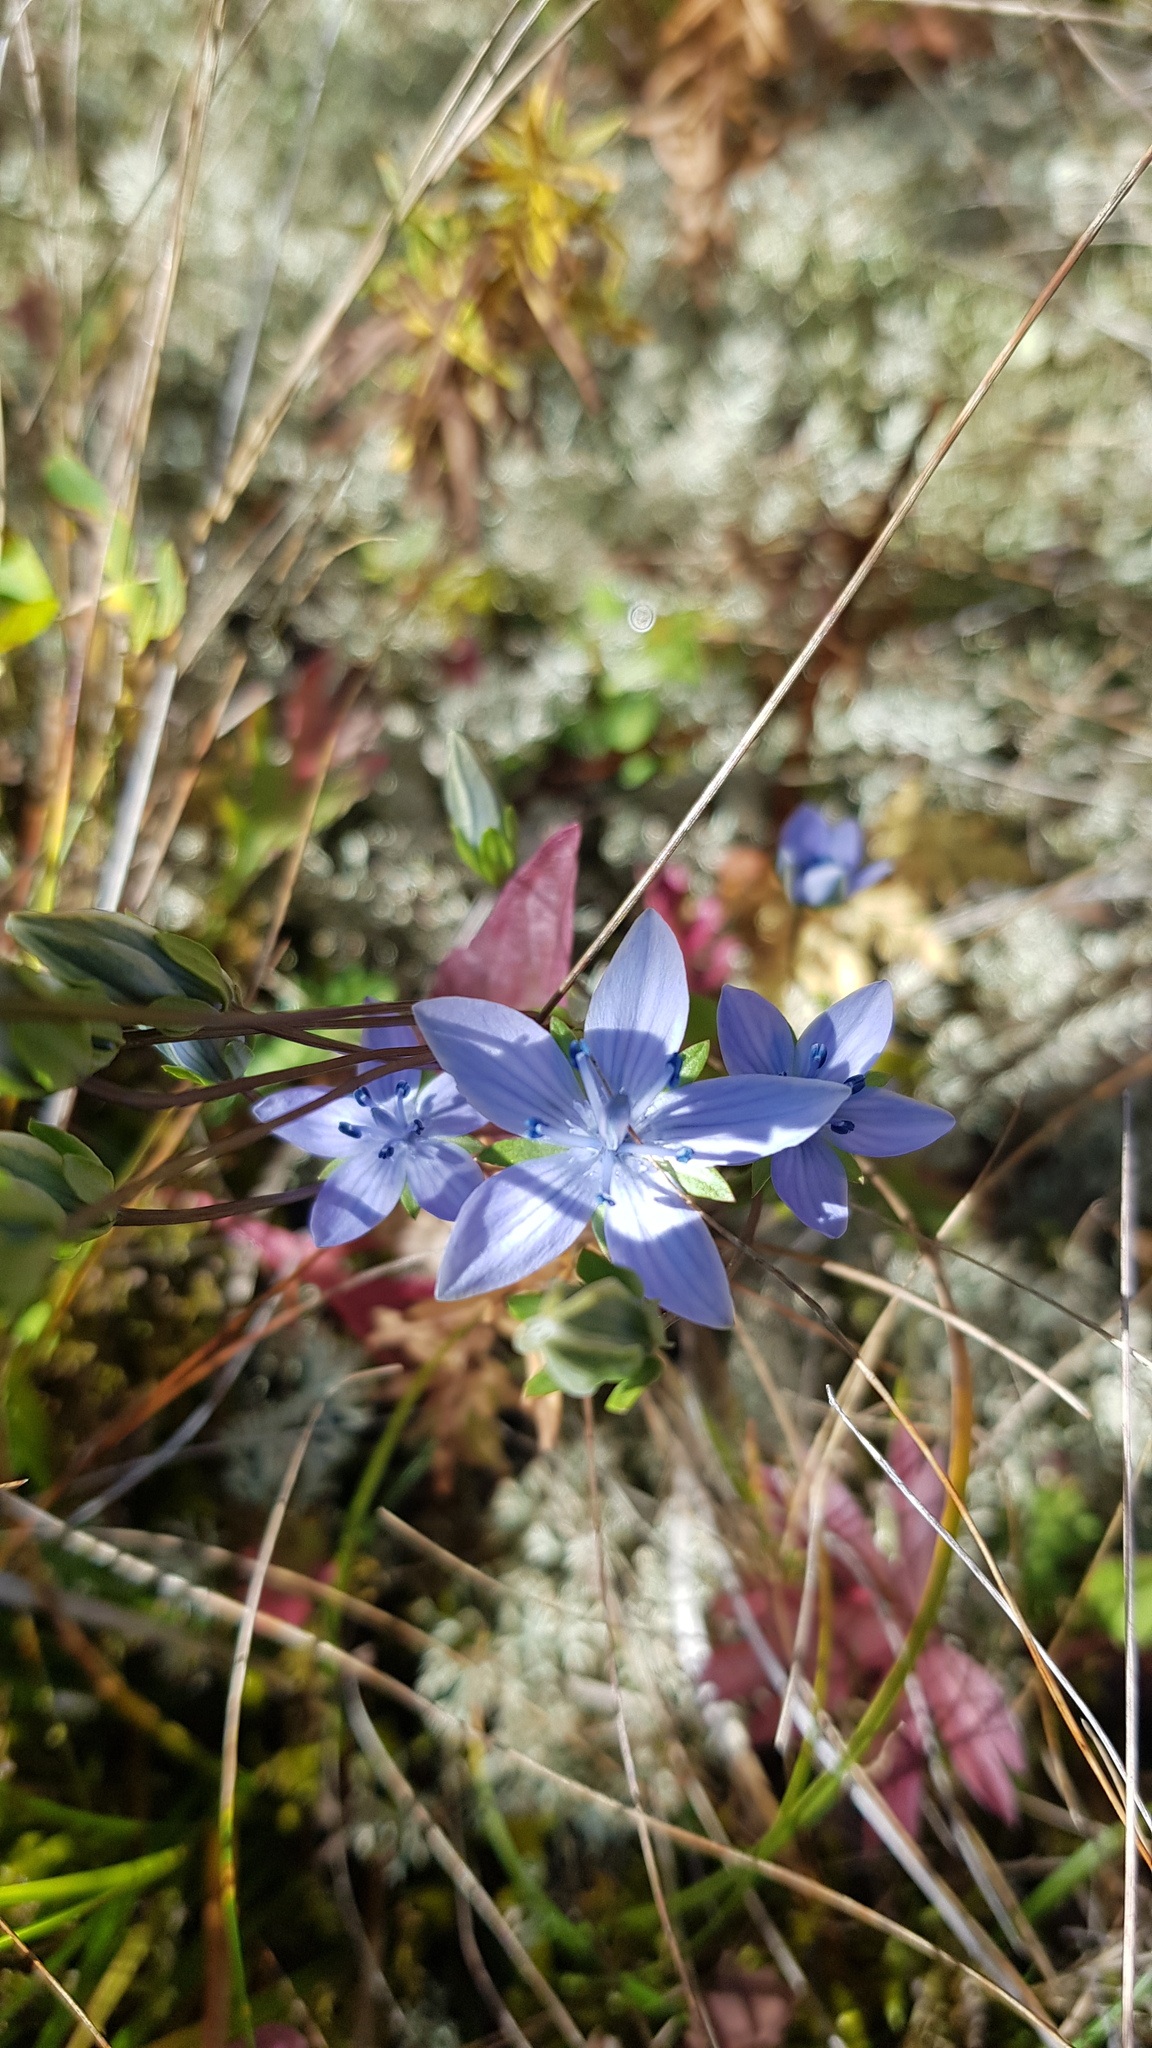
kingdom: Plantae
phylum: Tracheophyta
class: Magnoliopsida
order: Gentianales
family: Gentianaceae
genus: Lomatogonium
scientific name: Lomatogonium carinthiacum
